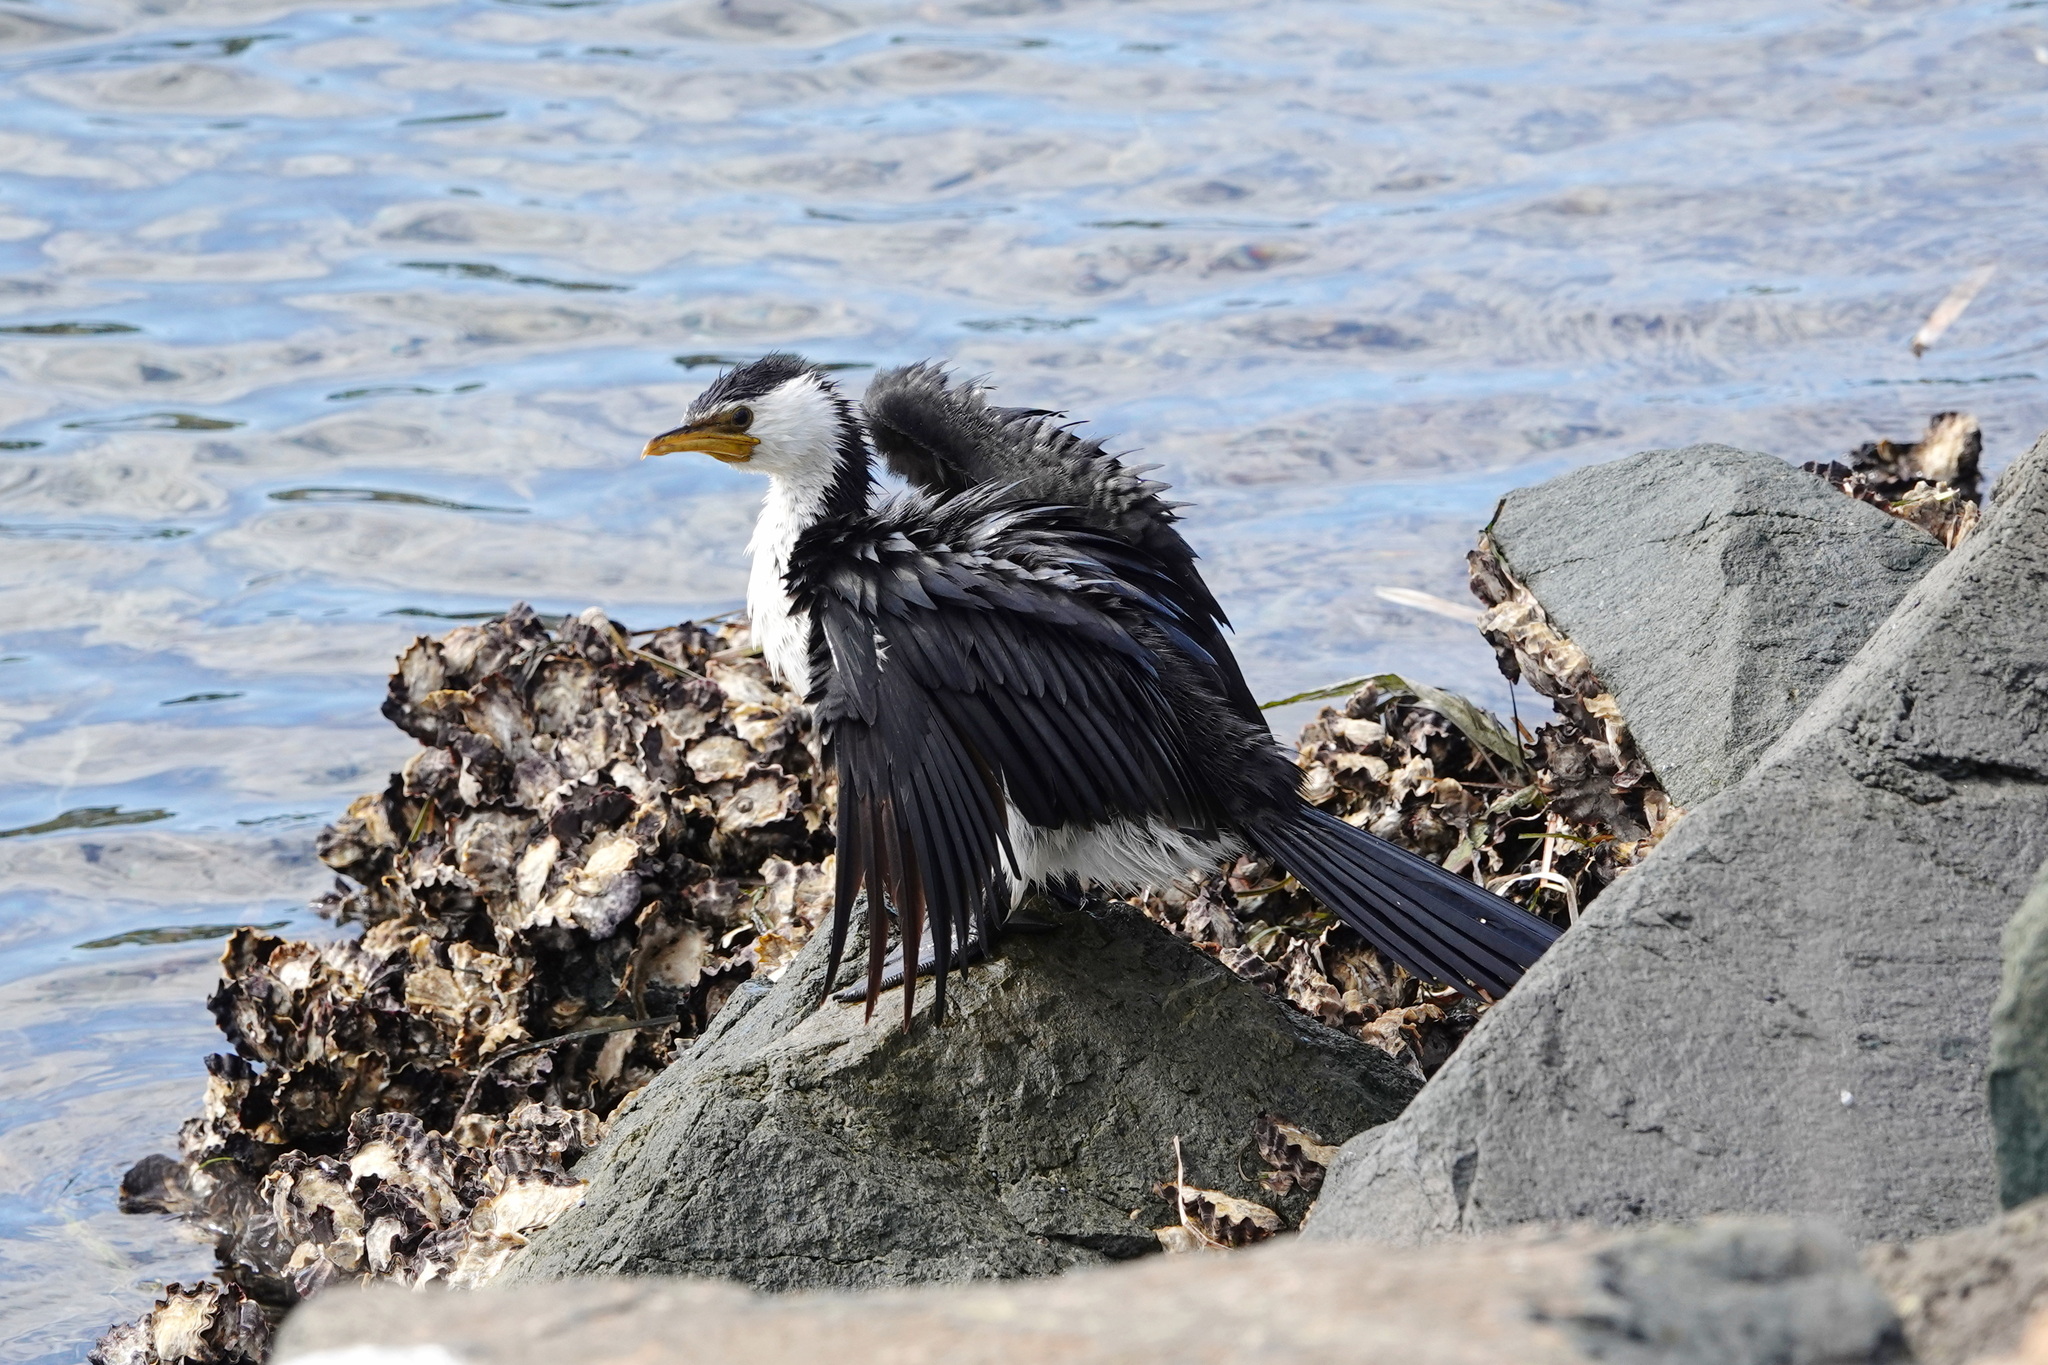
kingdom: Animalia
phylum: Chordata
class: Aves
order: Suliformes
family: Phalacrocoracidae
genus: Microcarbo
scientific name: Microcarbo melanoleucos
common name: Little pied cormorant
